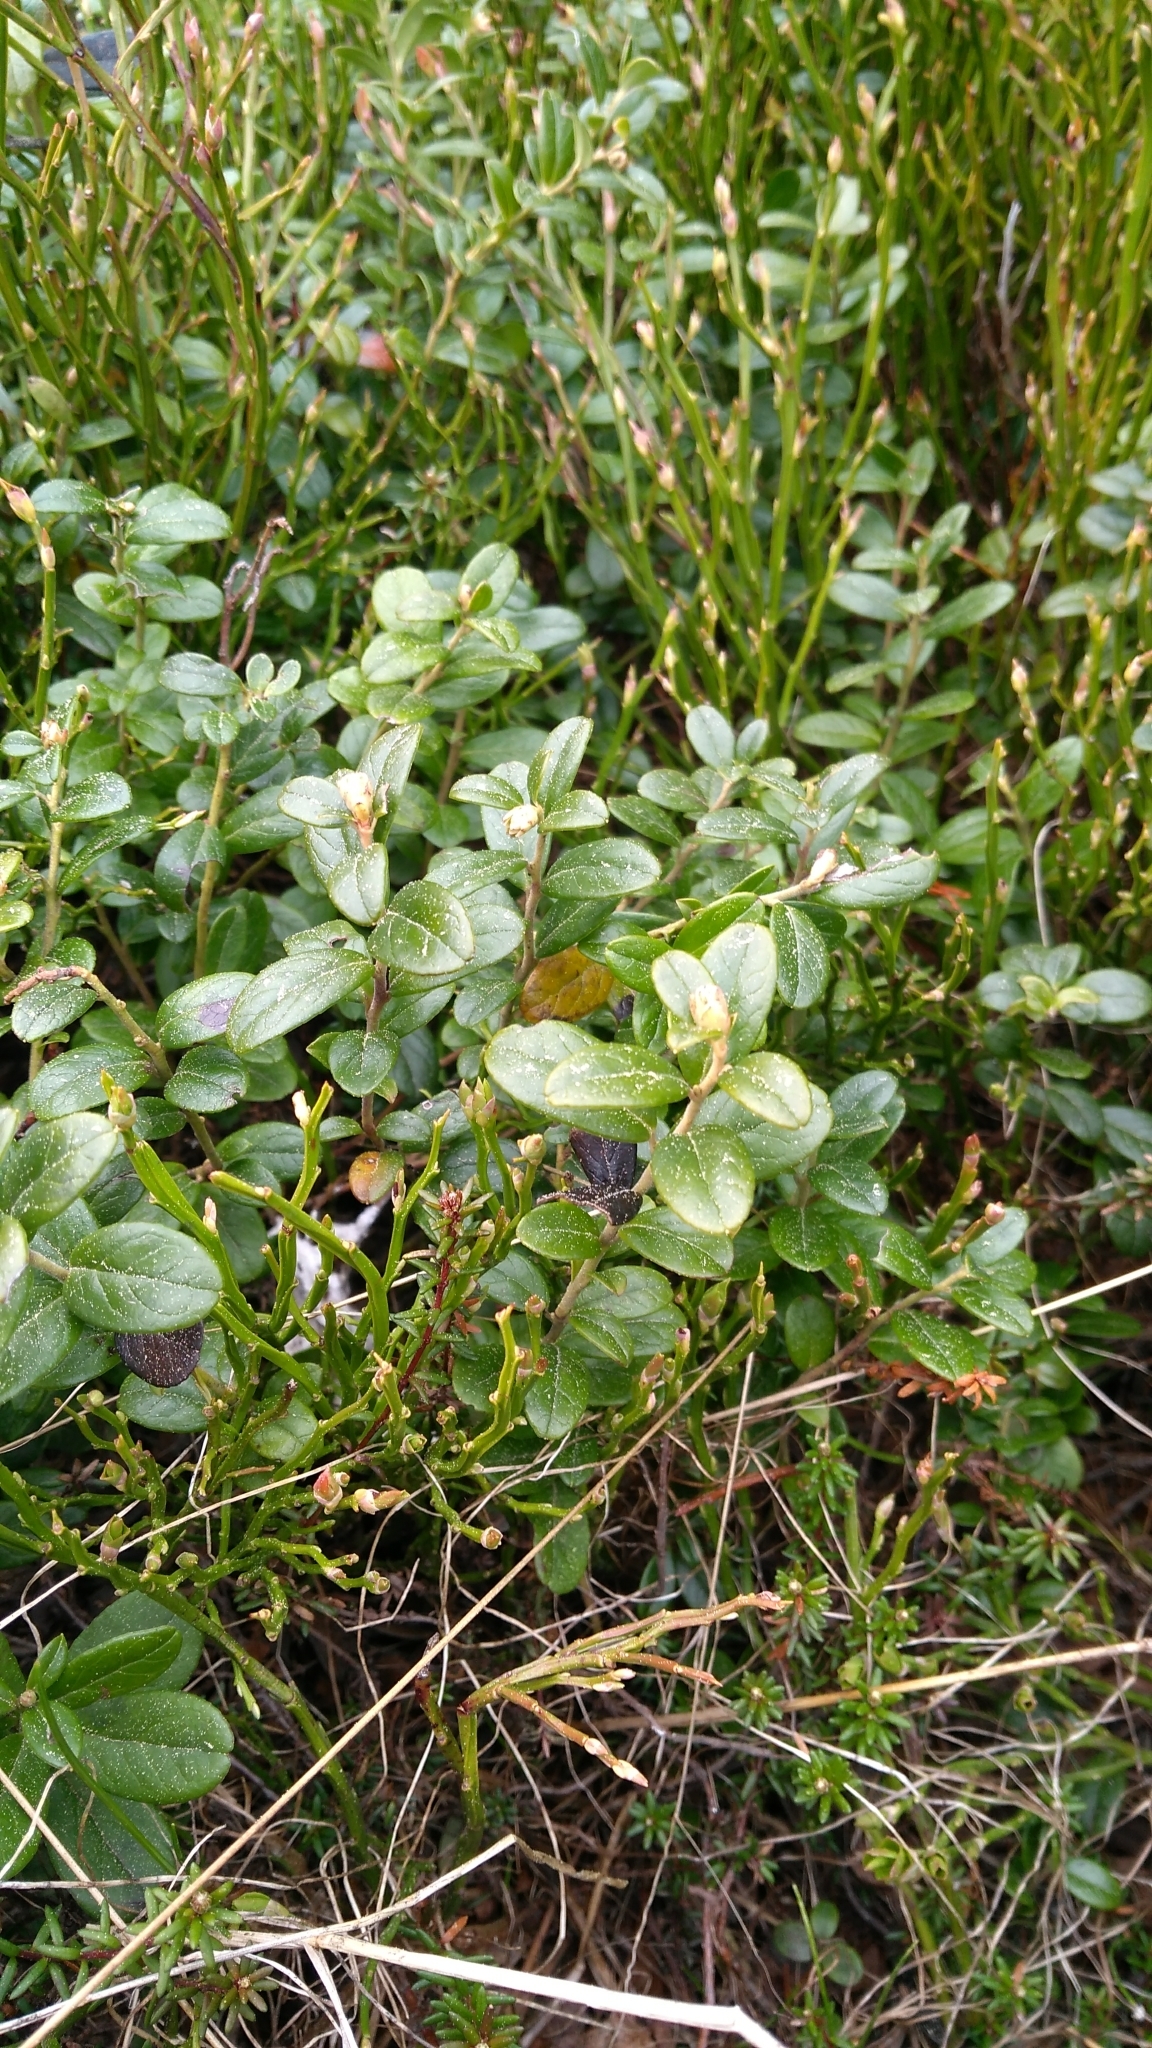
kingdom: Plantae
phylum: Tracheophyta
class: Magnoliopsida
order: Ericales
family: Ericaceae
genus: Vaccinium
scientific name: Vaccinium vitis-idaea
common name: Cowberry
